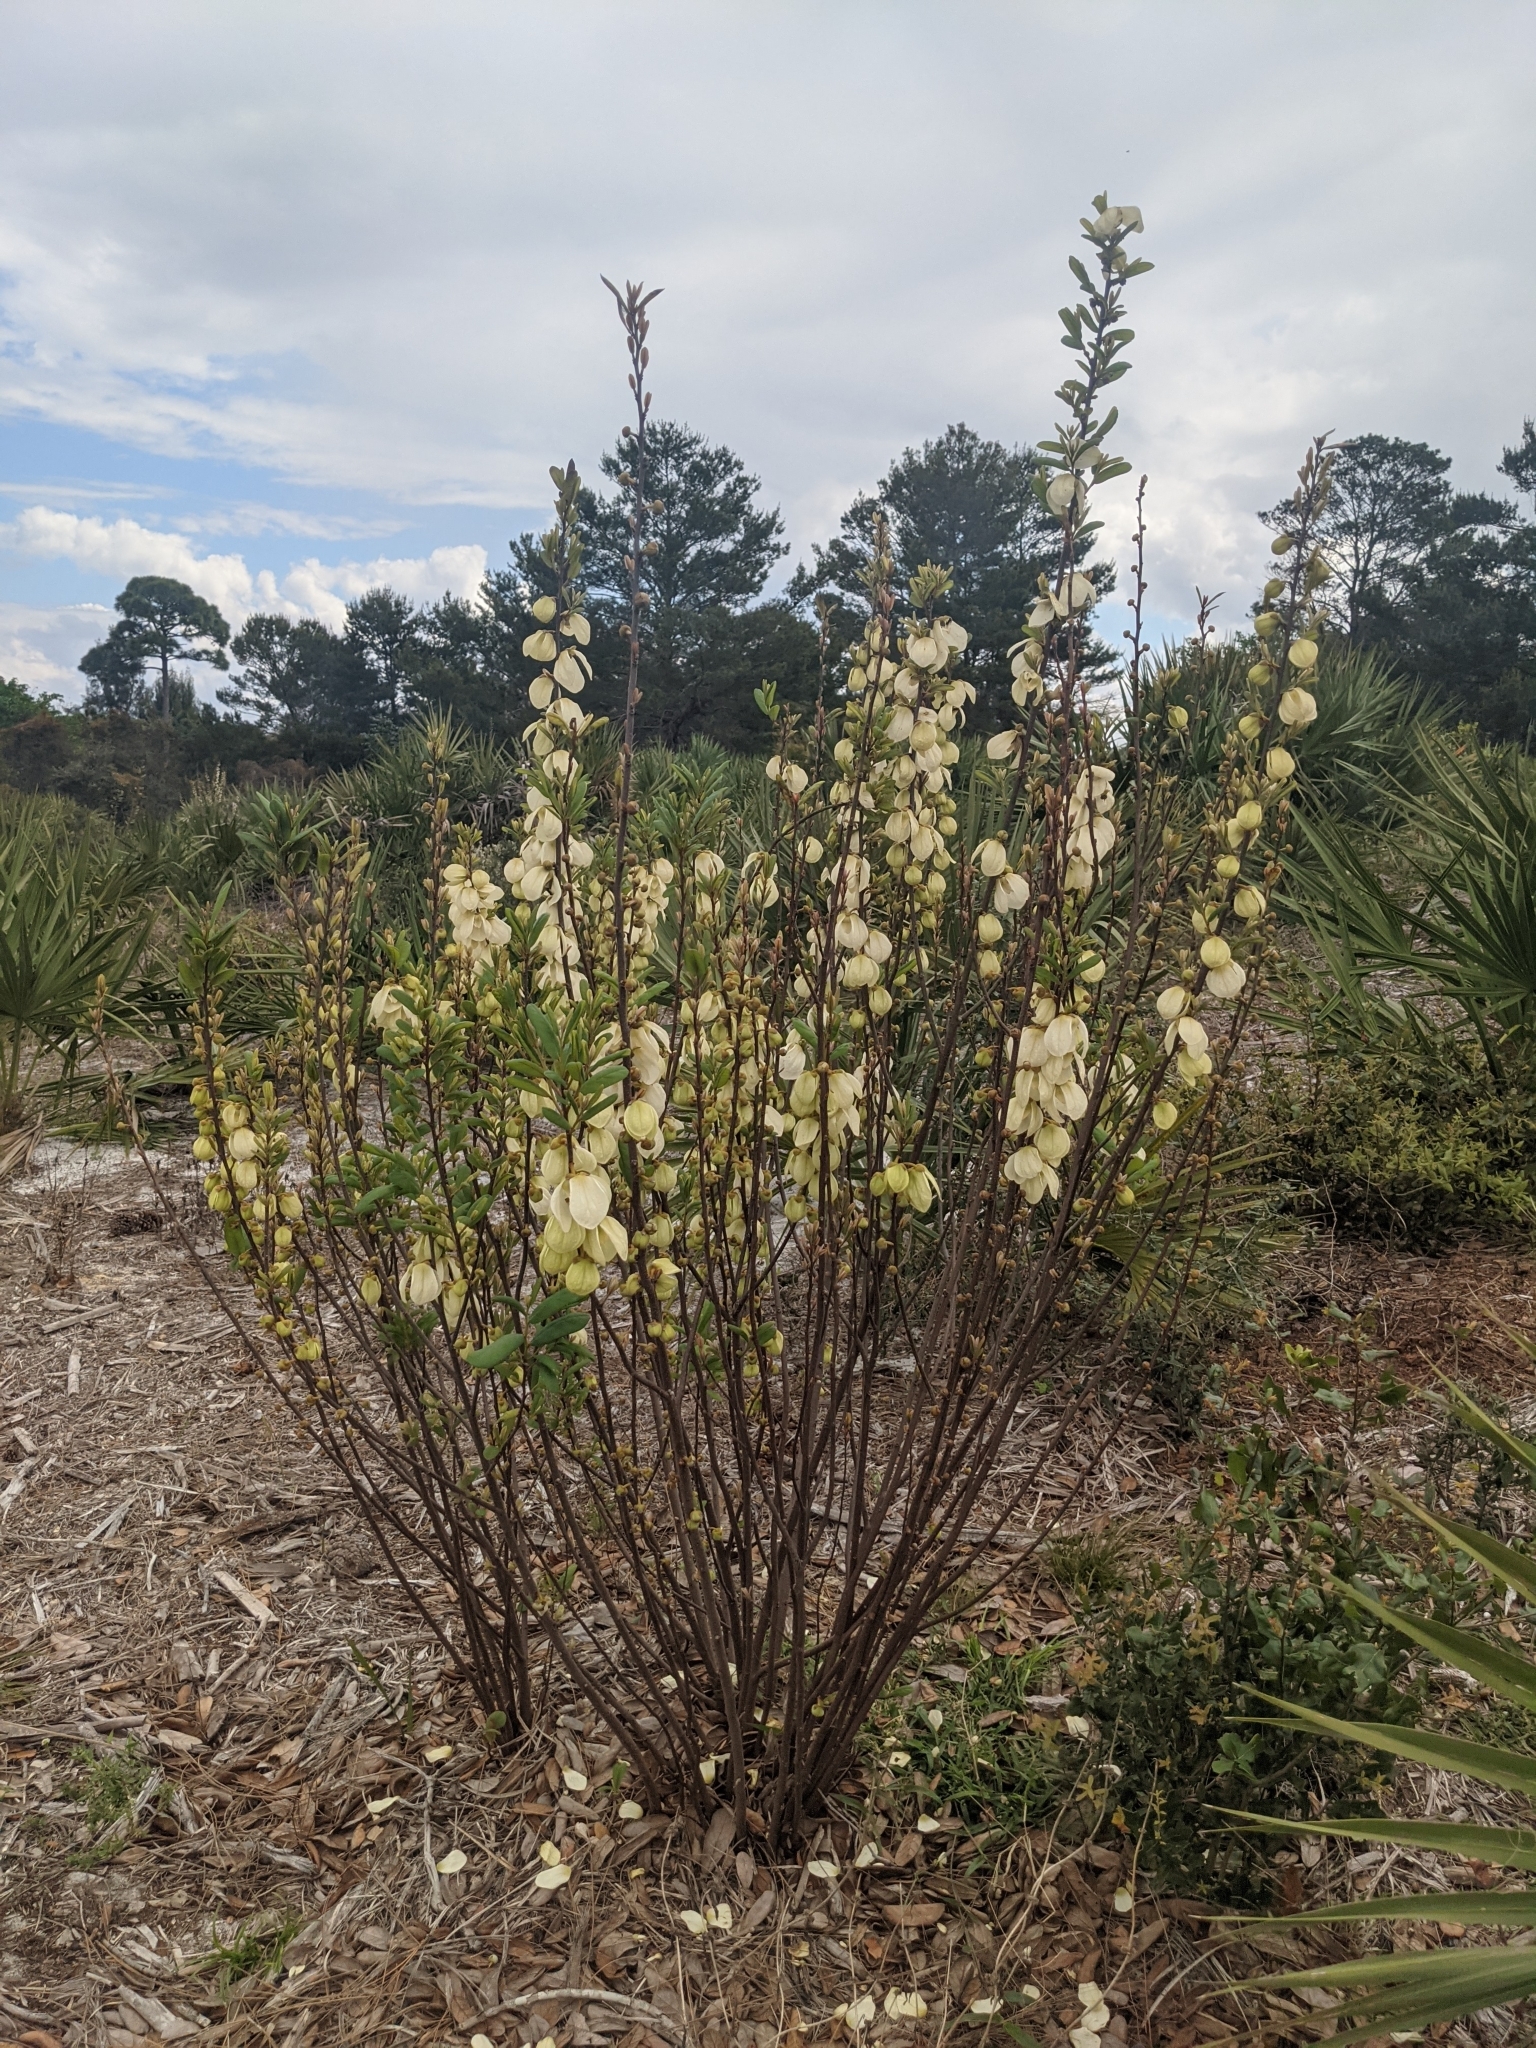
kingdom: Plantae
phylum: Tracheophyta
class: Magnoliopsida
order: Magnoliales
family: Annonaceae
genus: Asimina
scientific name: Asimina reticulata
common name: Flag pawpaw
